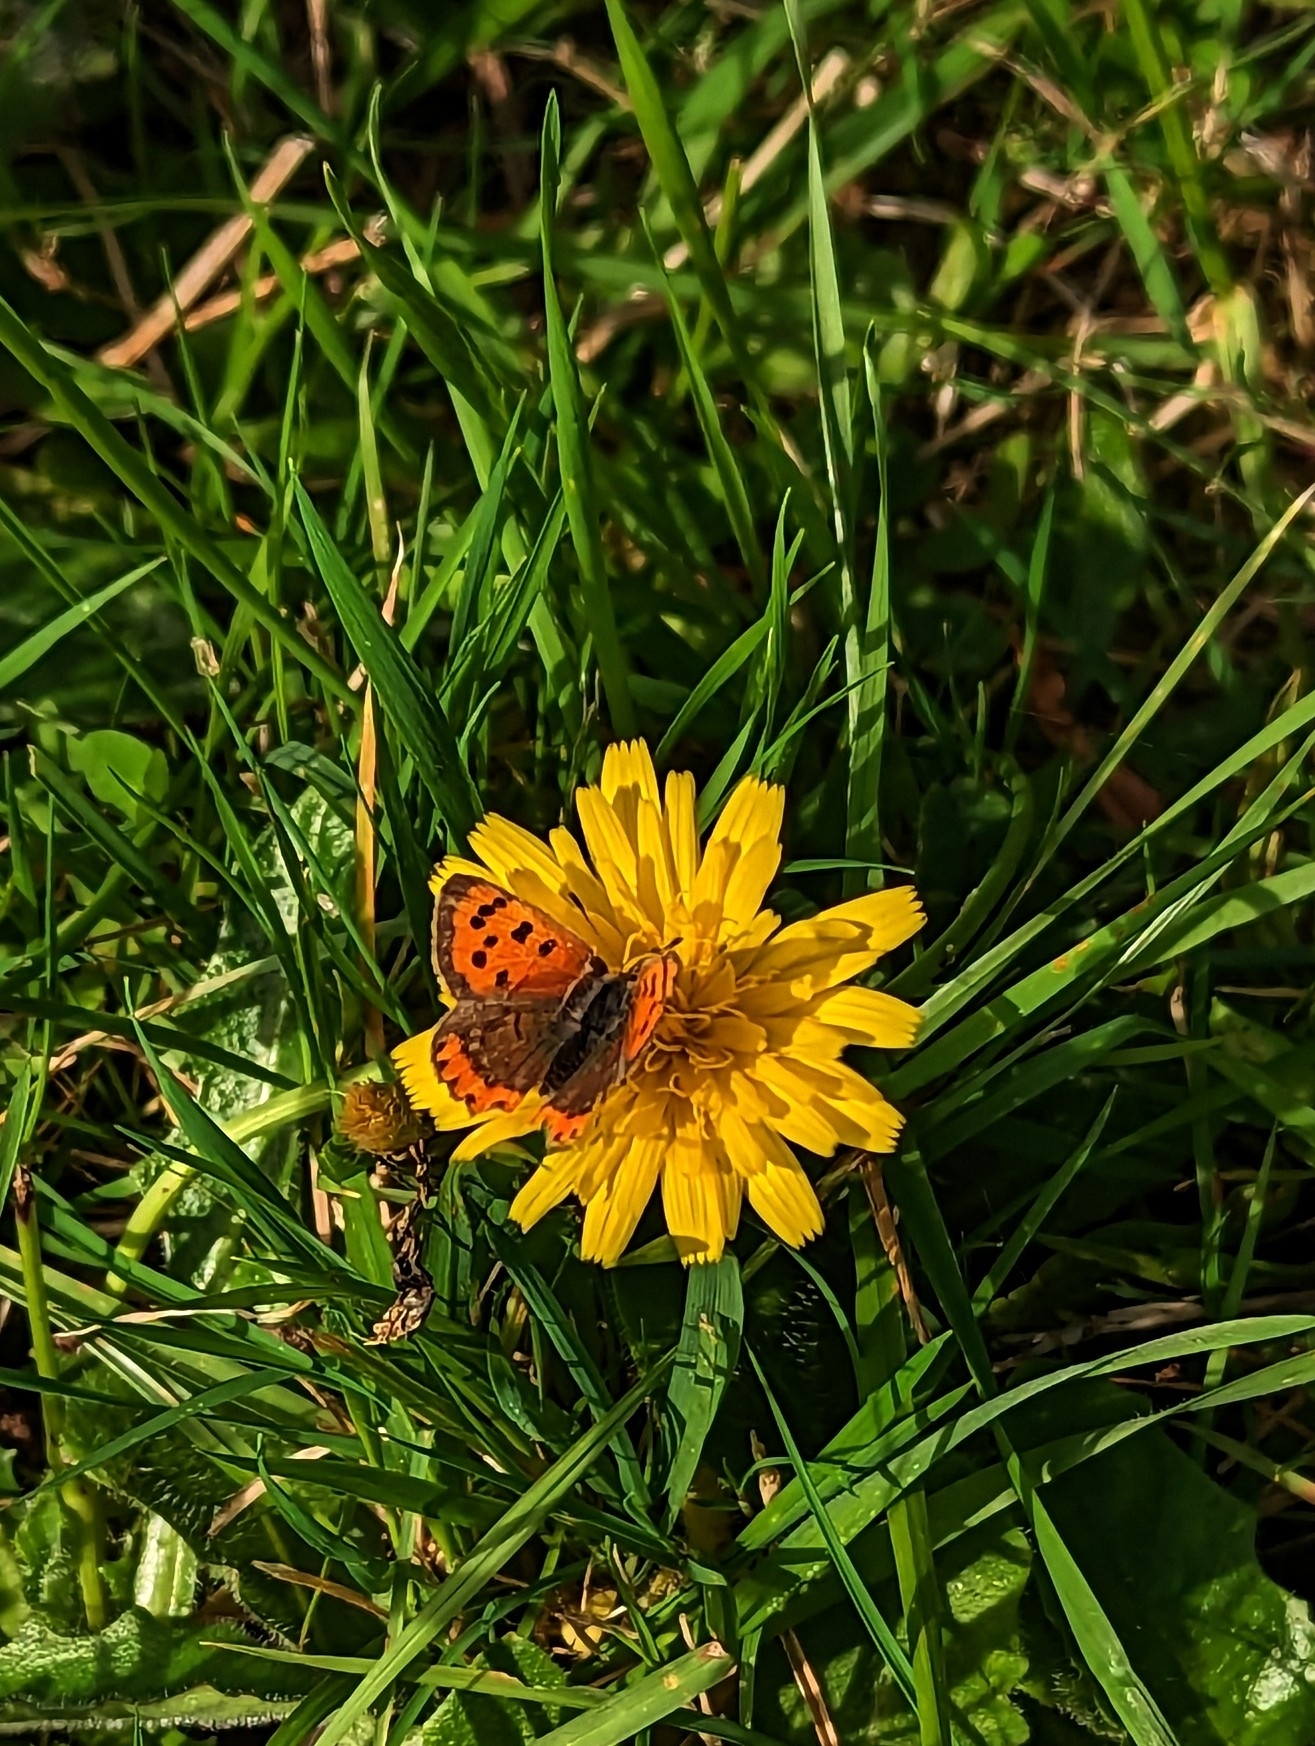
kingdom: Animalia
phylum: Arthropoda
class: Insecta
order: Lepidoptera
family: Lycaenidae
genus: Lycaena
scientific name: Lycaena phlaeas
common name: Small copper
